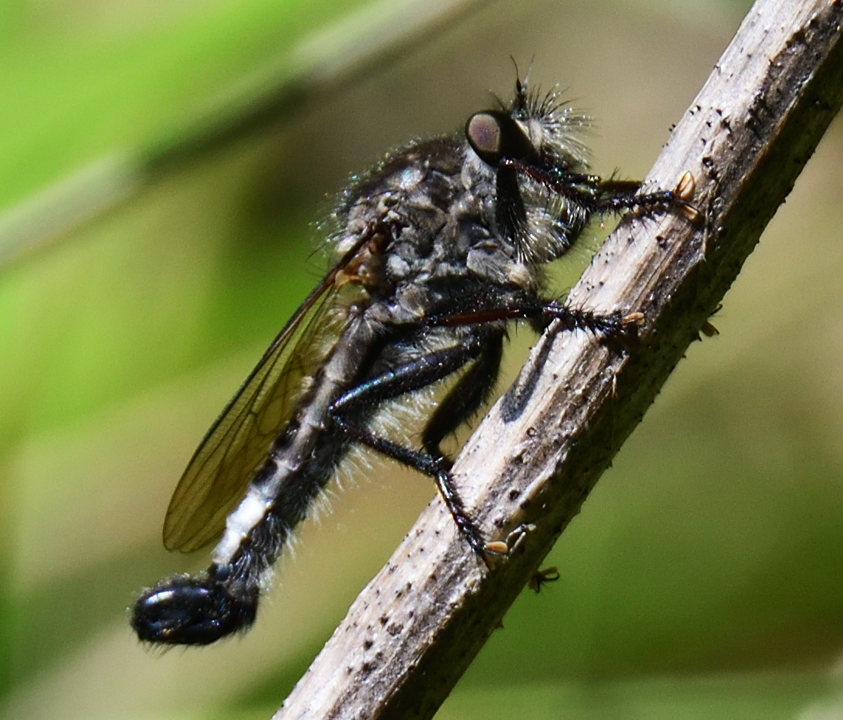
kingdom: Animalia
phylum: Arthropoda
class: Insecta
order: Diptera
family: Asilidae
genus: Efferia
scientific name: Efferia aestuans
